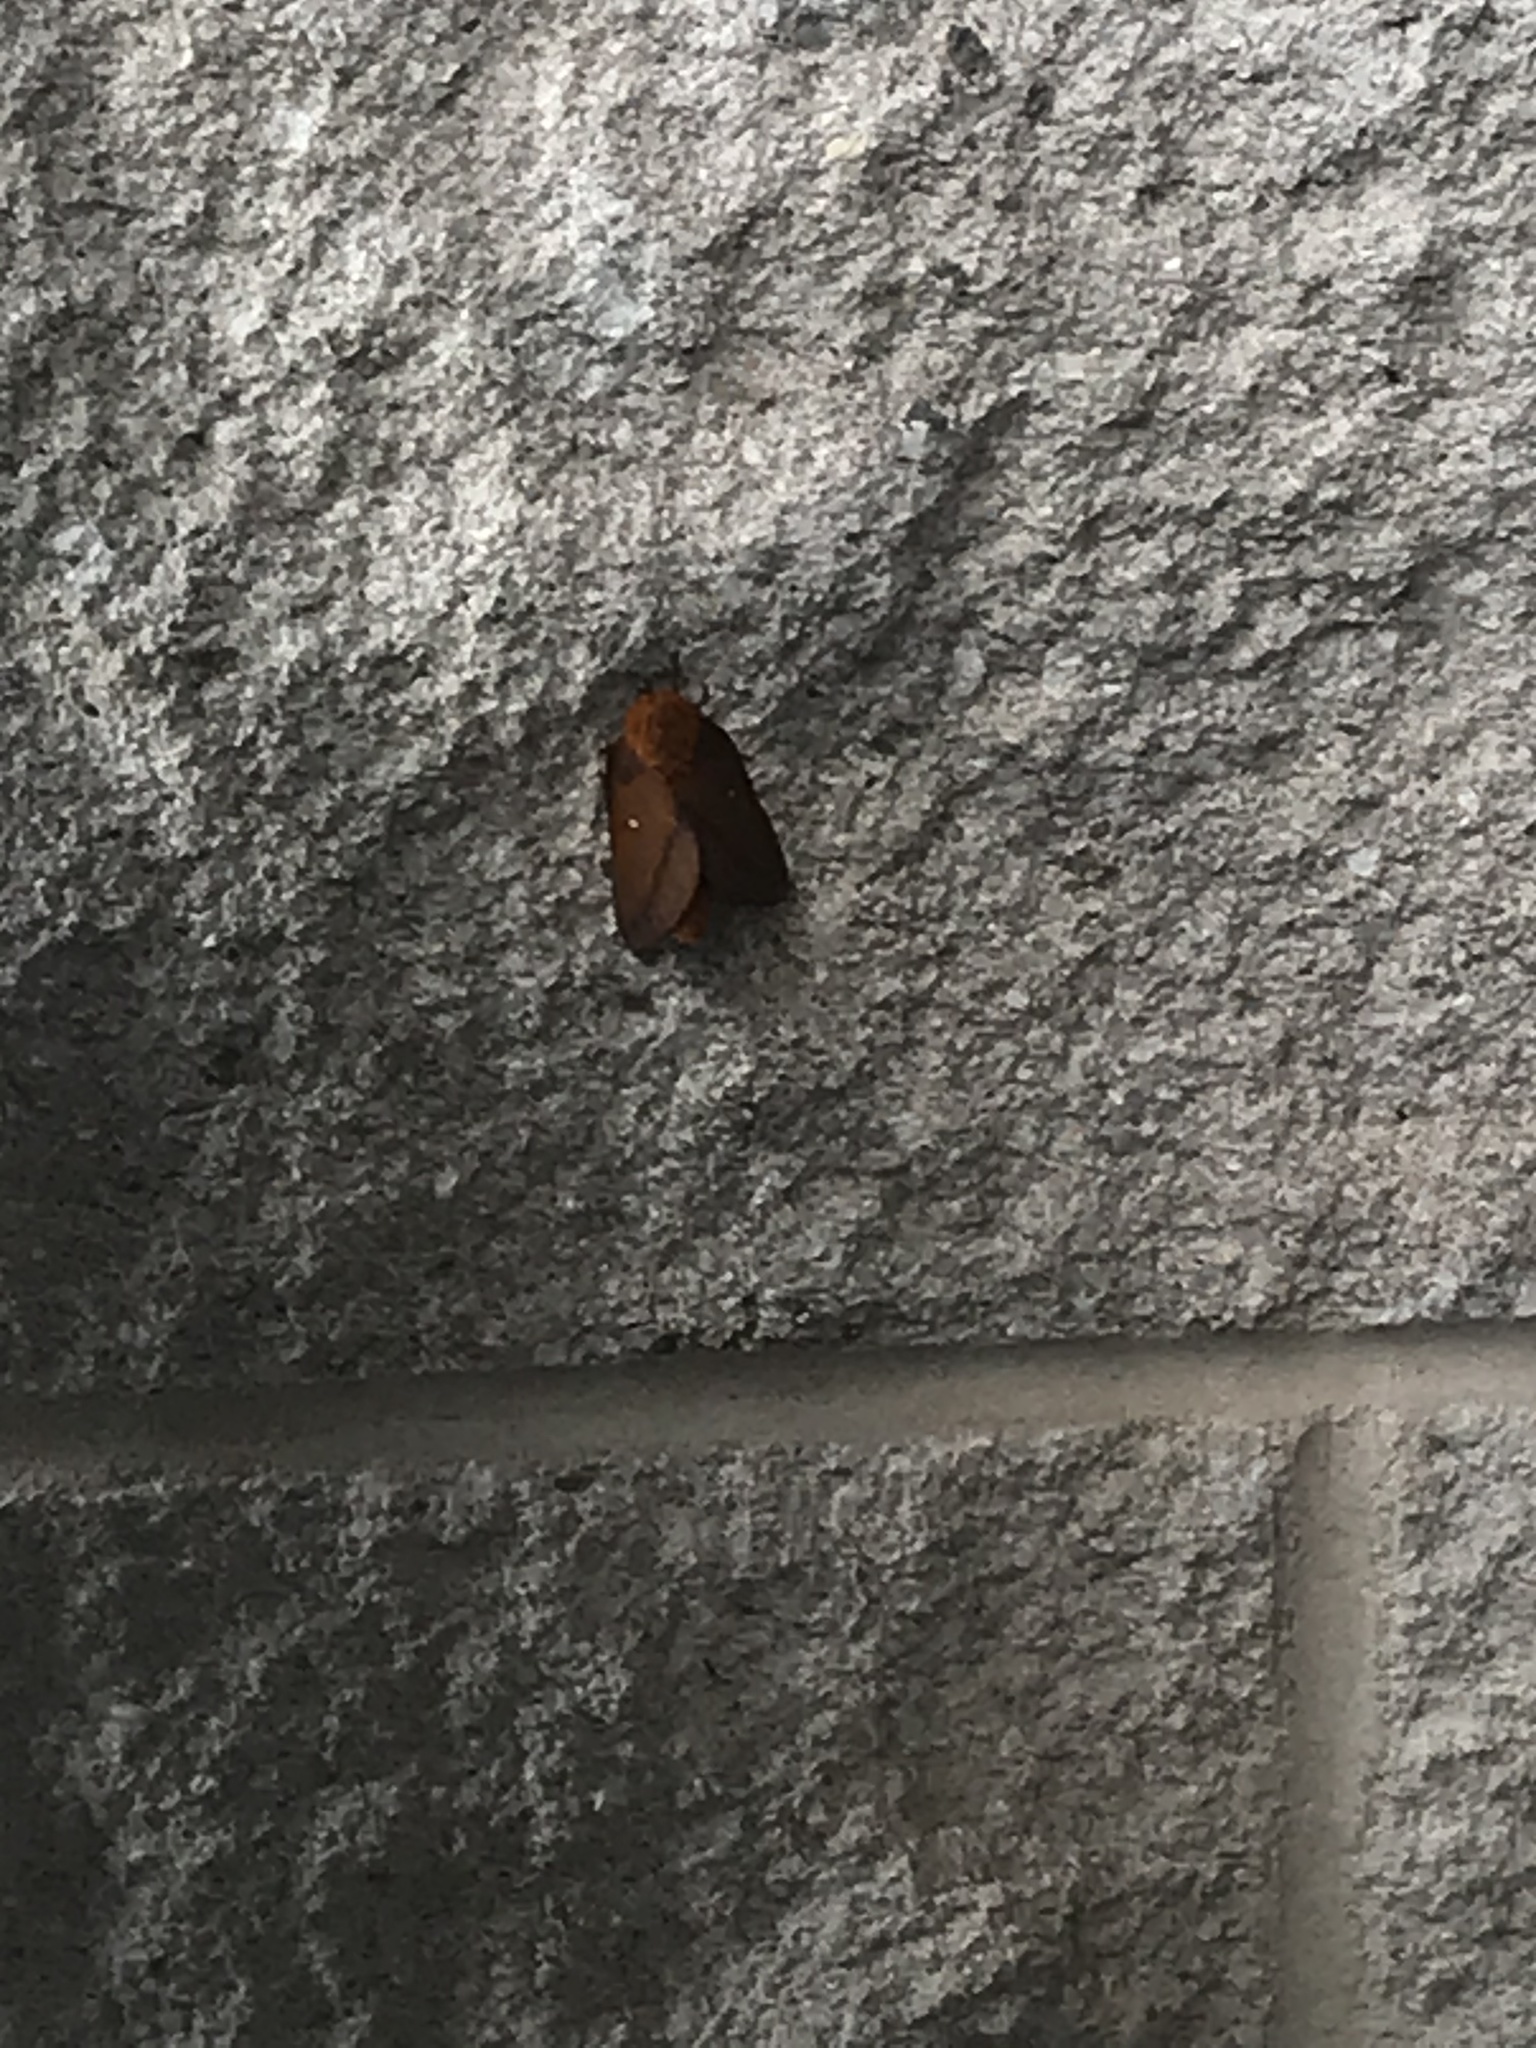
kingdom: Animalia
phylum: Arthropoda
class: Insecta
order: Lepidoptera
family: Saturniidae
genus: Anisota
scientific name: Anisota virginiensis
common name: Pink striped oakworm moth
